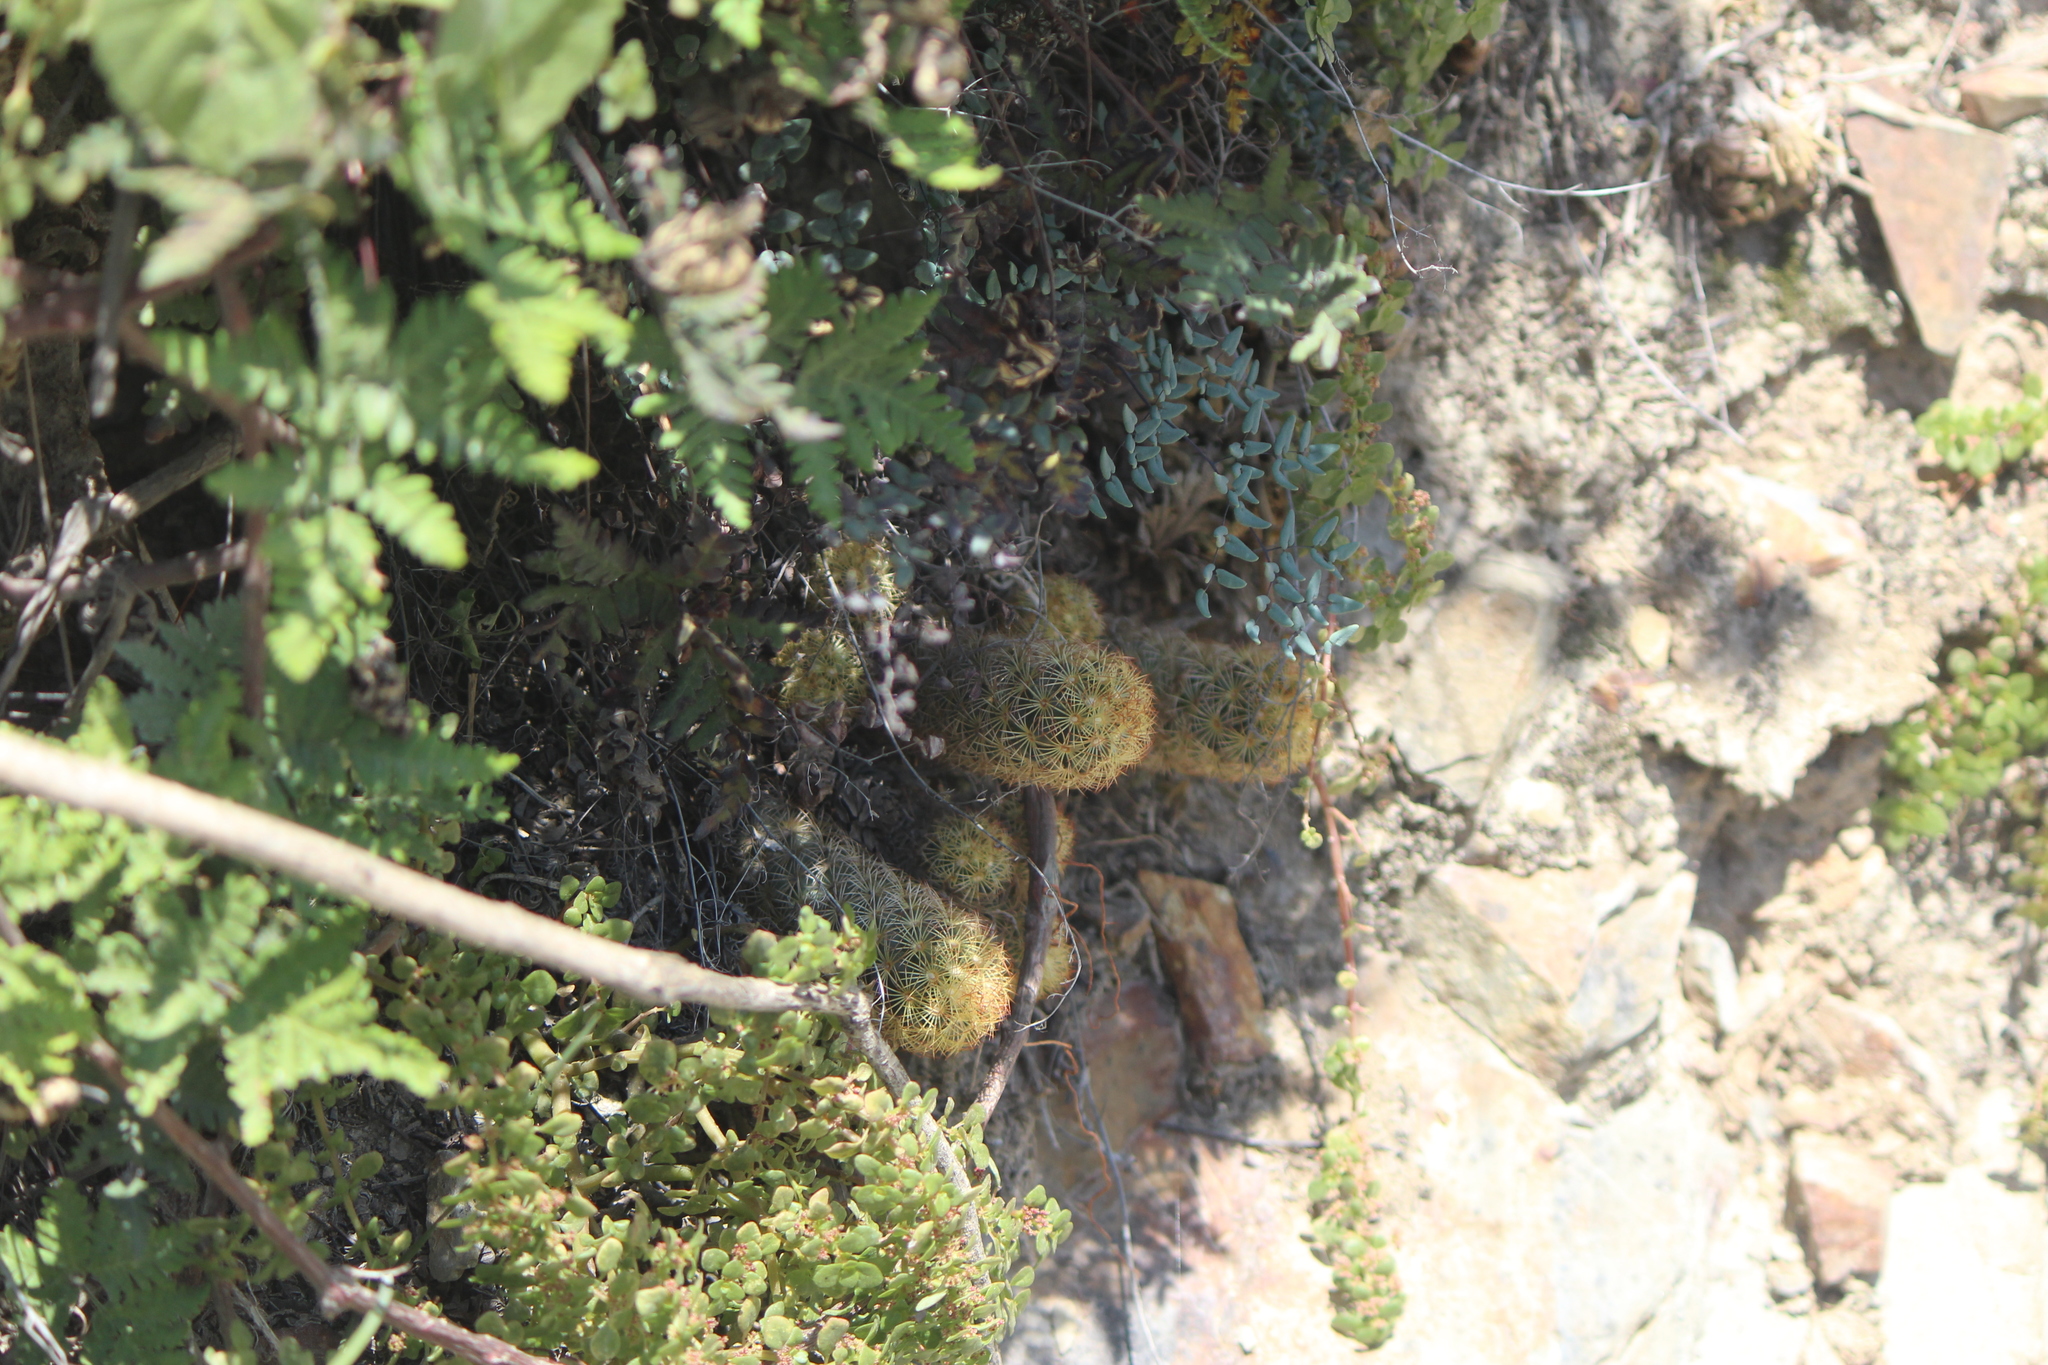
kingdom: Plantae
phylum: Tracheophyta
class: Magnoliopsida
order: Caryophyllales
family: Cactaceae
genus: Mammillaria
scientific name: Mammillaria elongata
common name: Golden star cactus
